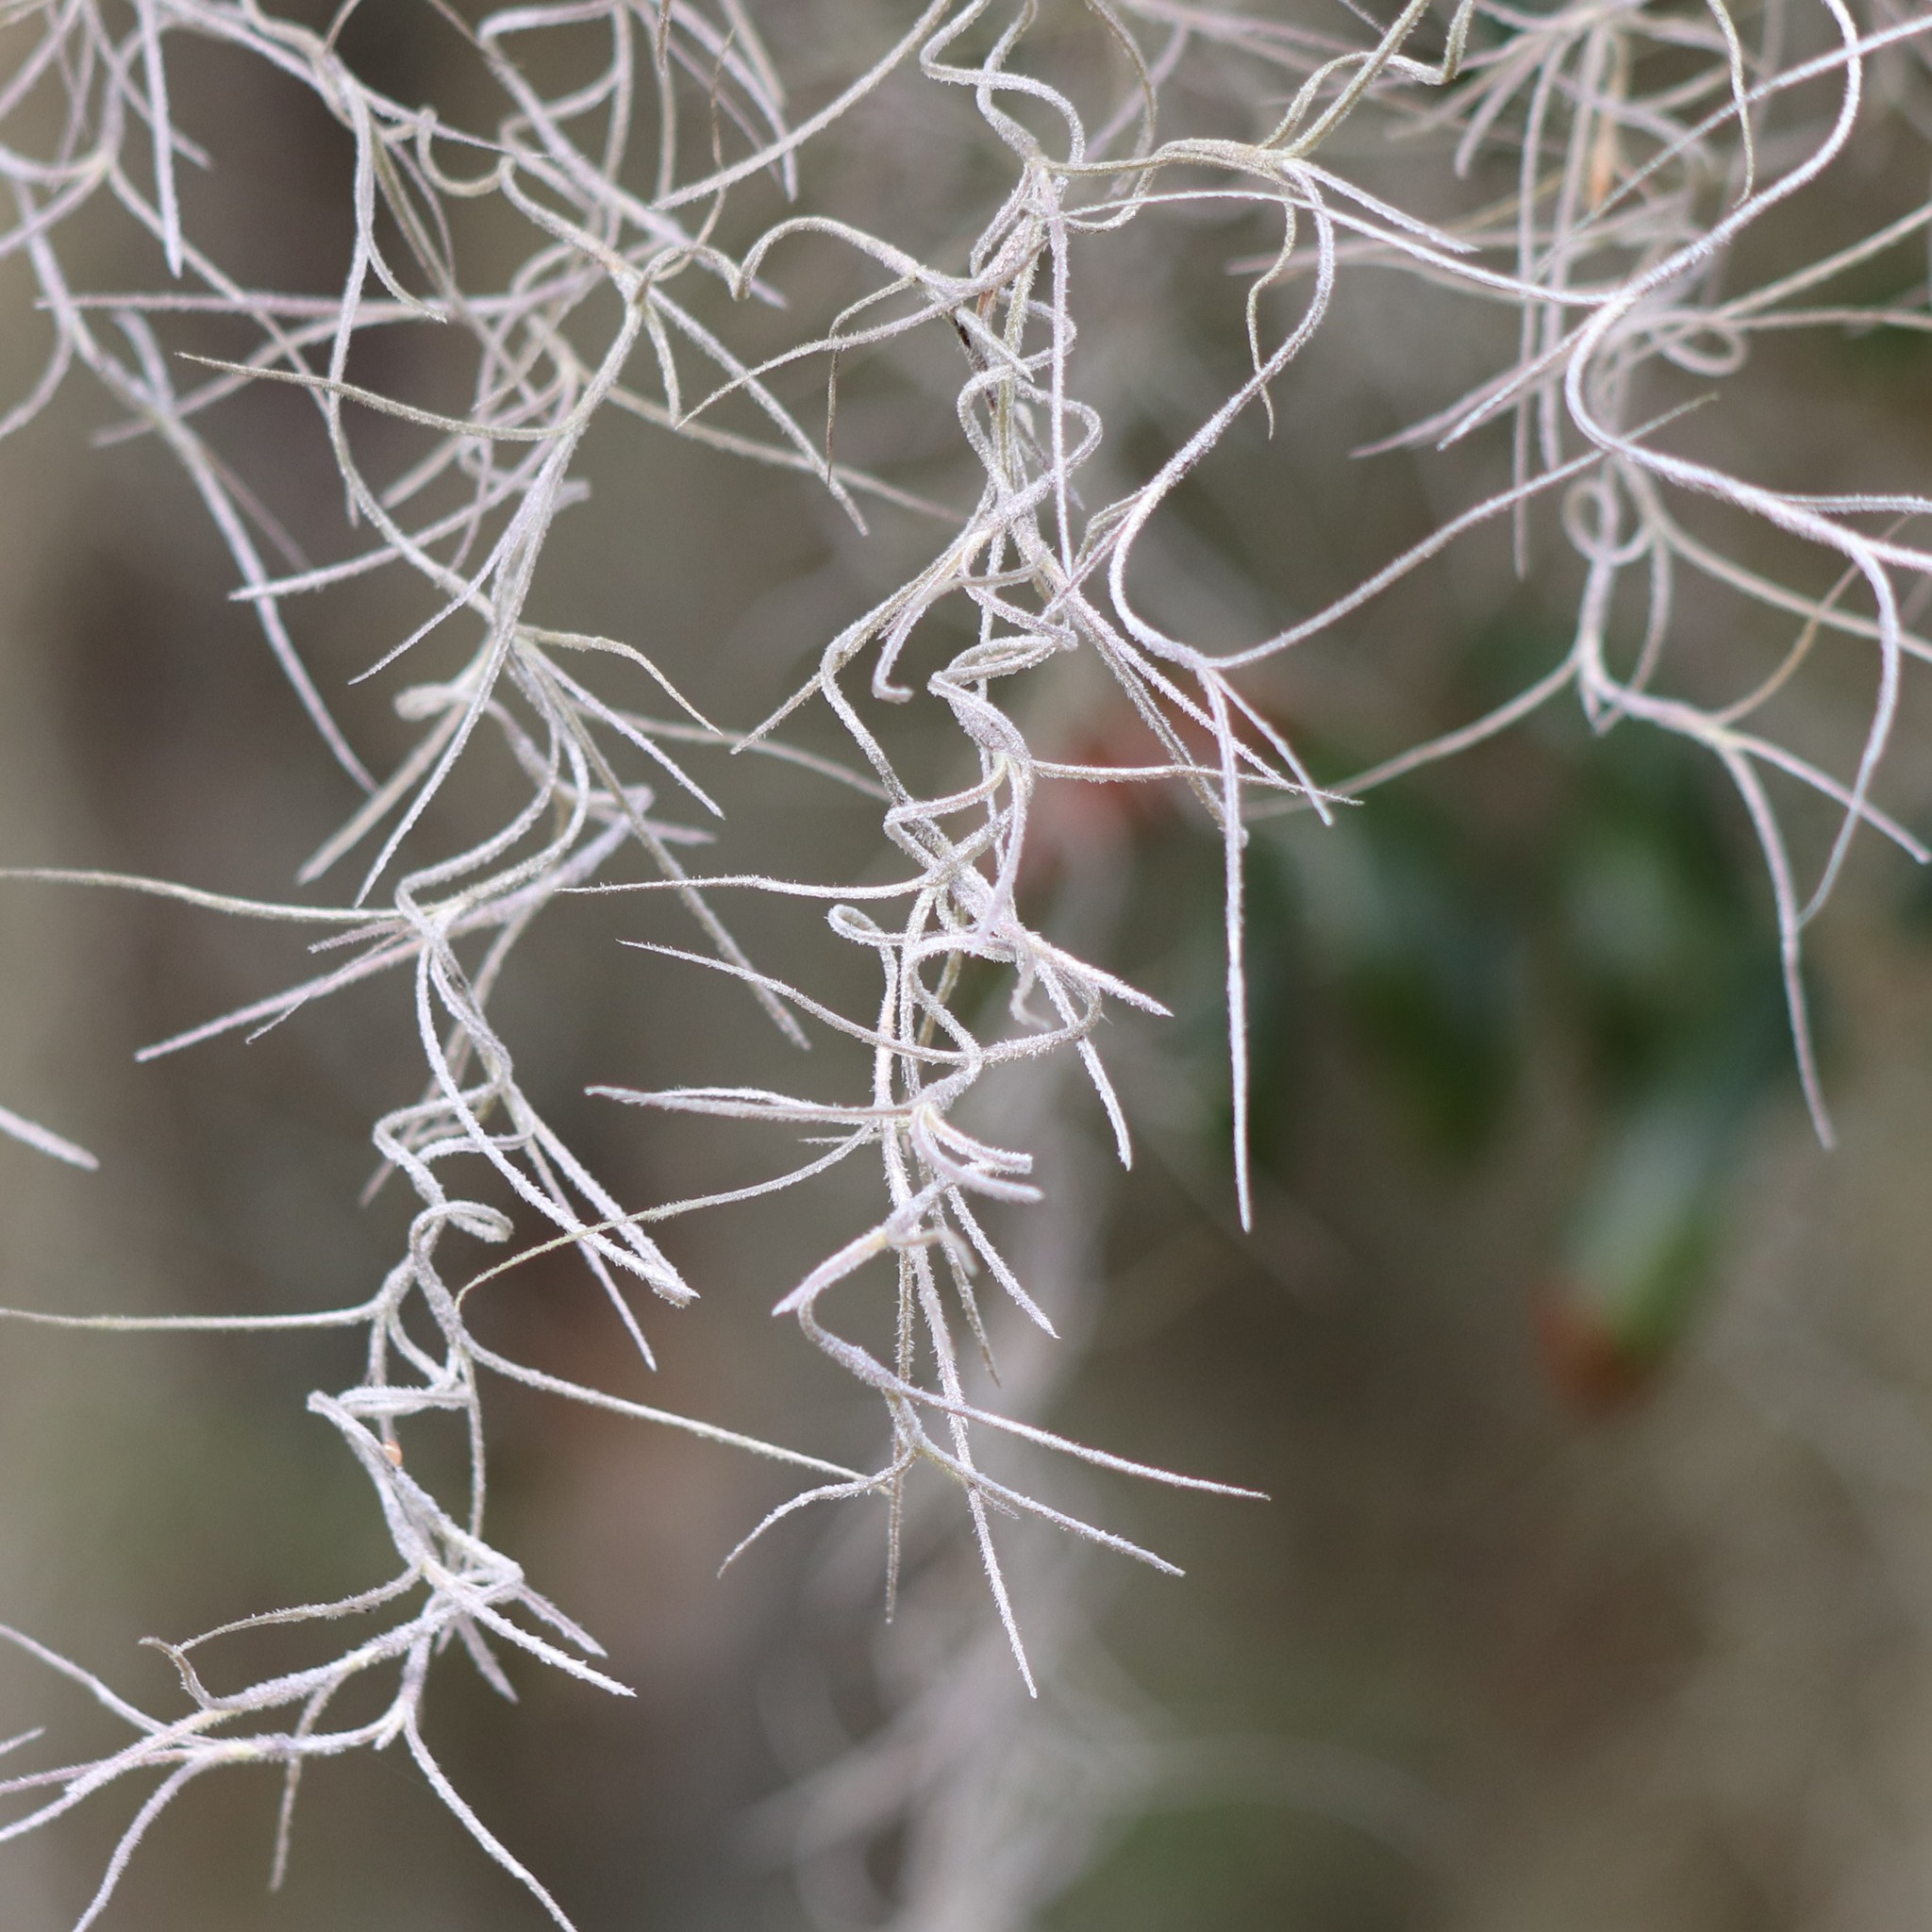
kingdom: Plantae
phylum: Tracheophyta
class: Liliopsida
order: Poales
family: Bromeliaceae
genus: Tillandsia
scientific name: Tillandsia usneoides
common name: Spanish moss
